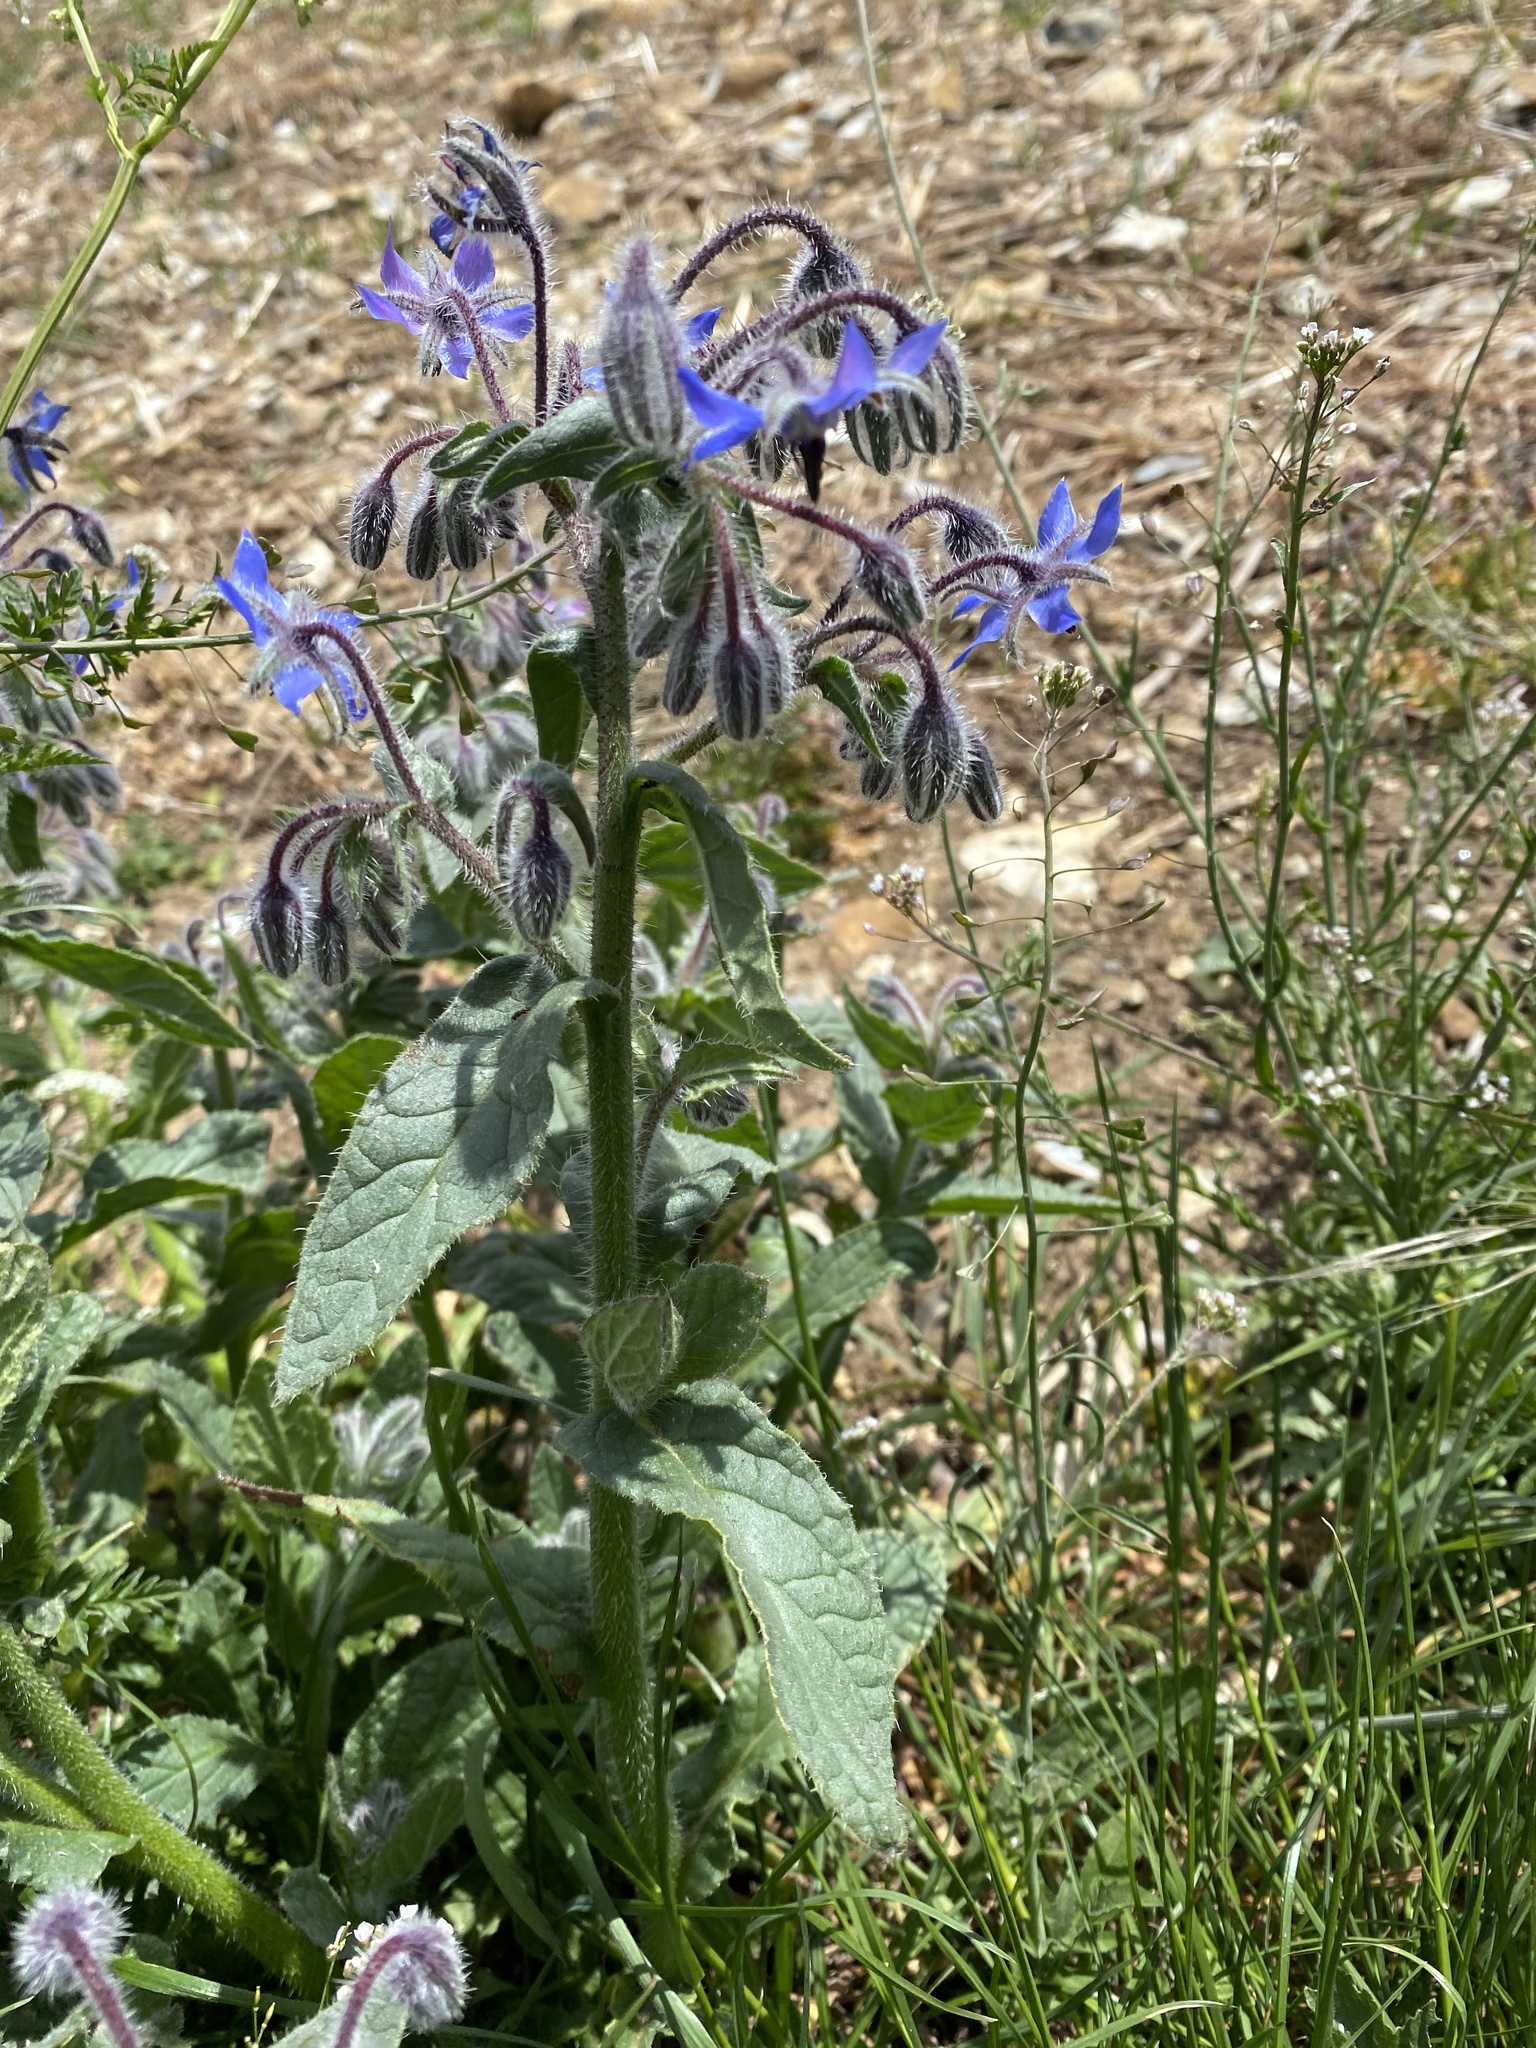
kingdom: Plantae
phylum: Tracheophyta
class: Magnoliopsida
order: Boraginales
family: Boraginaceae
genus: Borago
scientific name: Borago officinalis
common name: Borage
